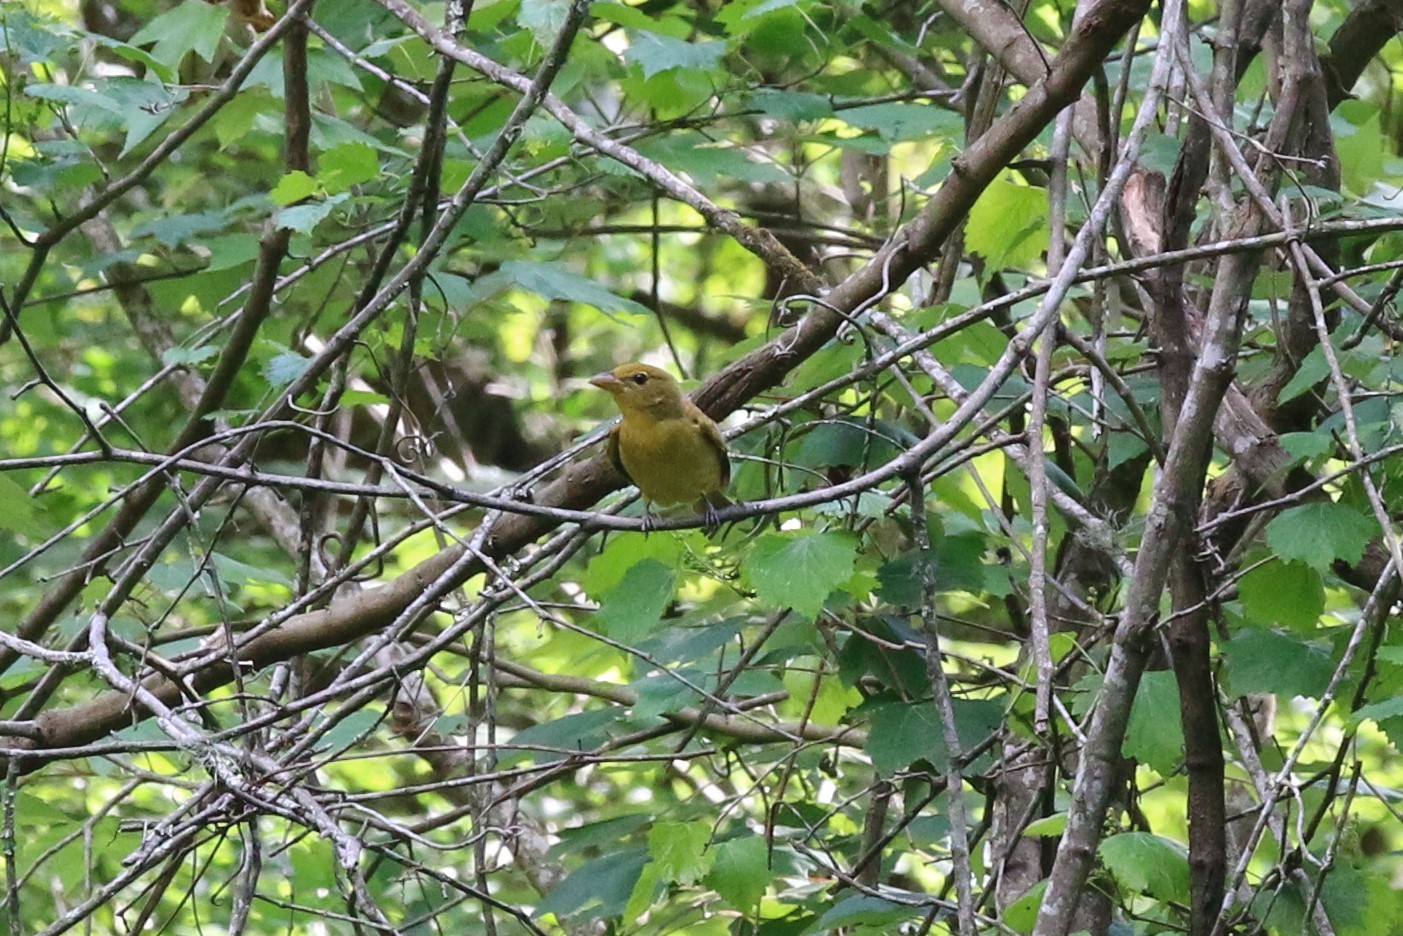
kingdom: Animalia
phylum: Chordata
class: Aves
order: Passeriformes
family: Cardinalidae
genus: Piranga
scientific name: Piranga rubra
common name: Summer tanager
